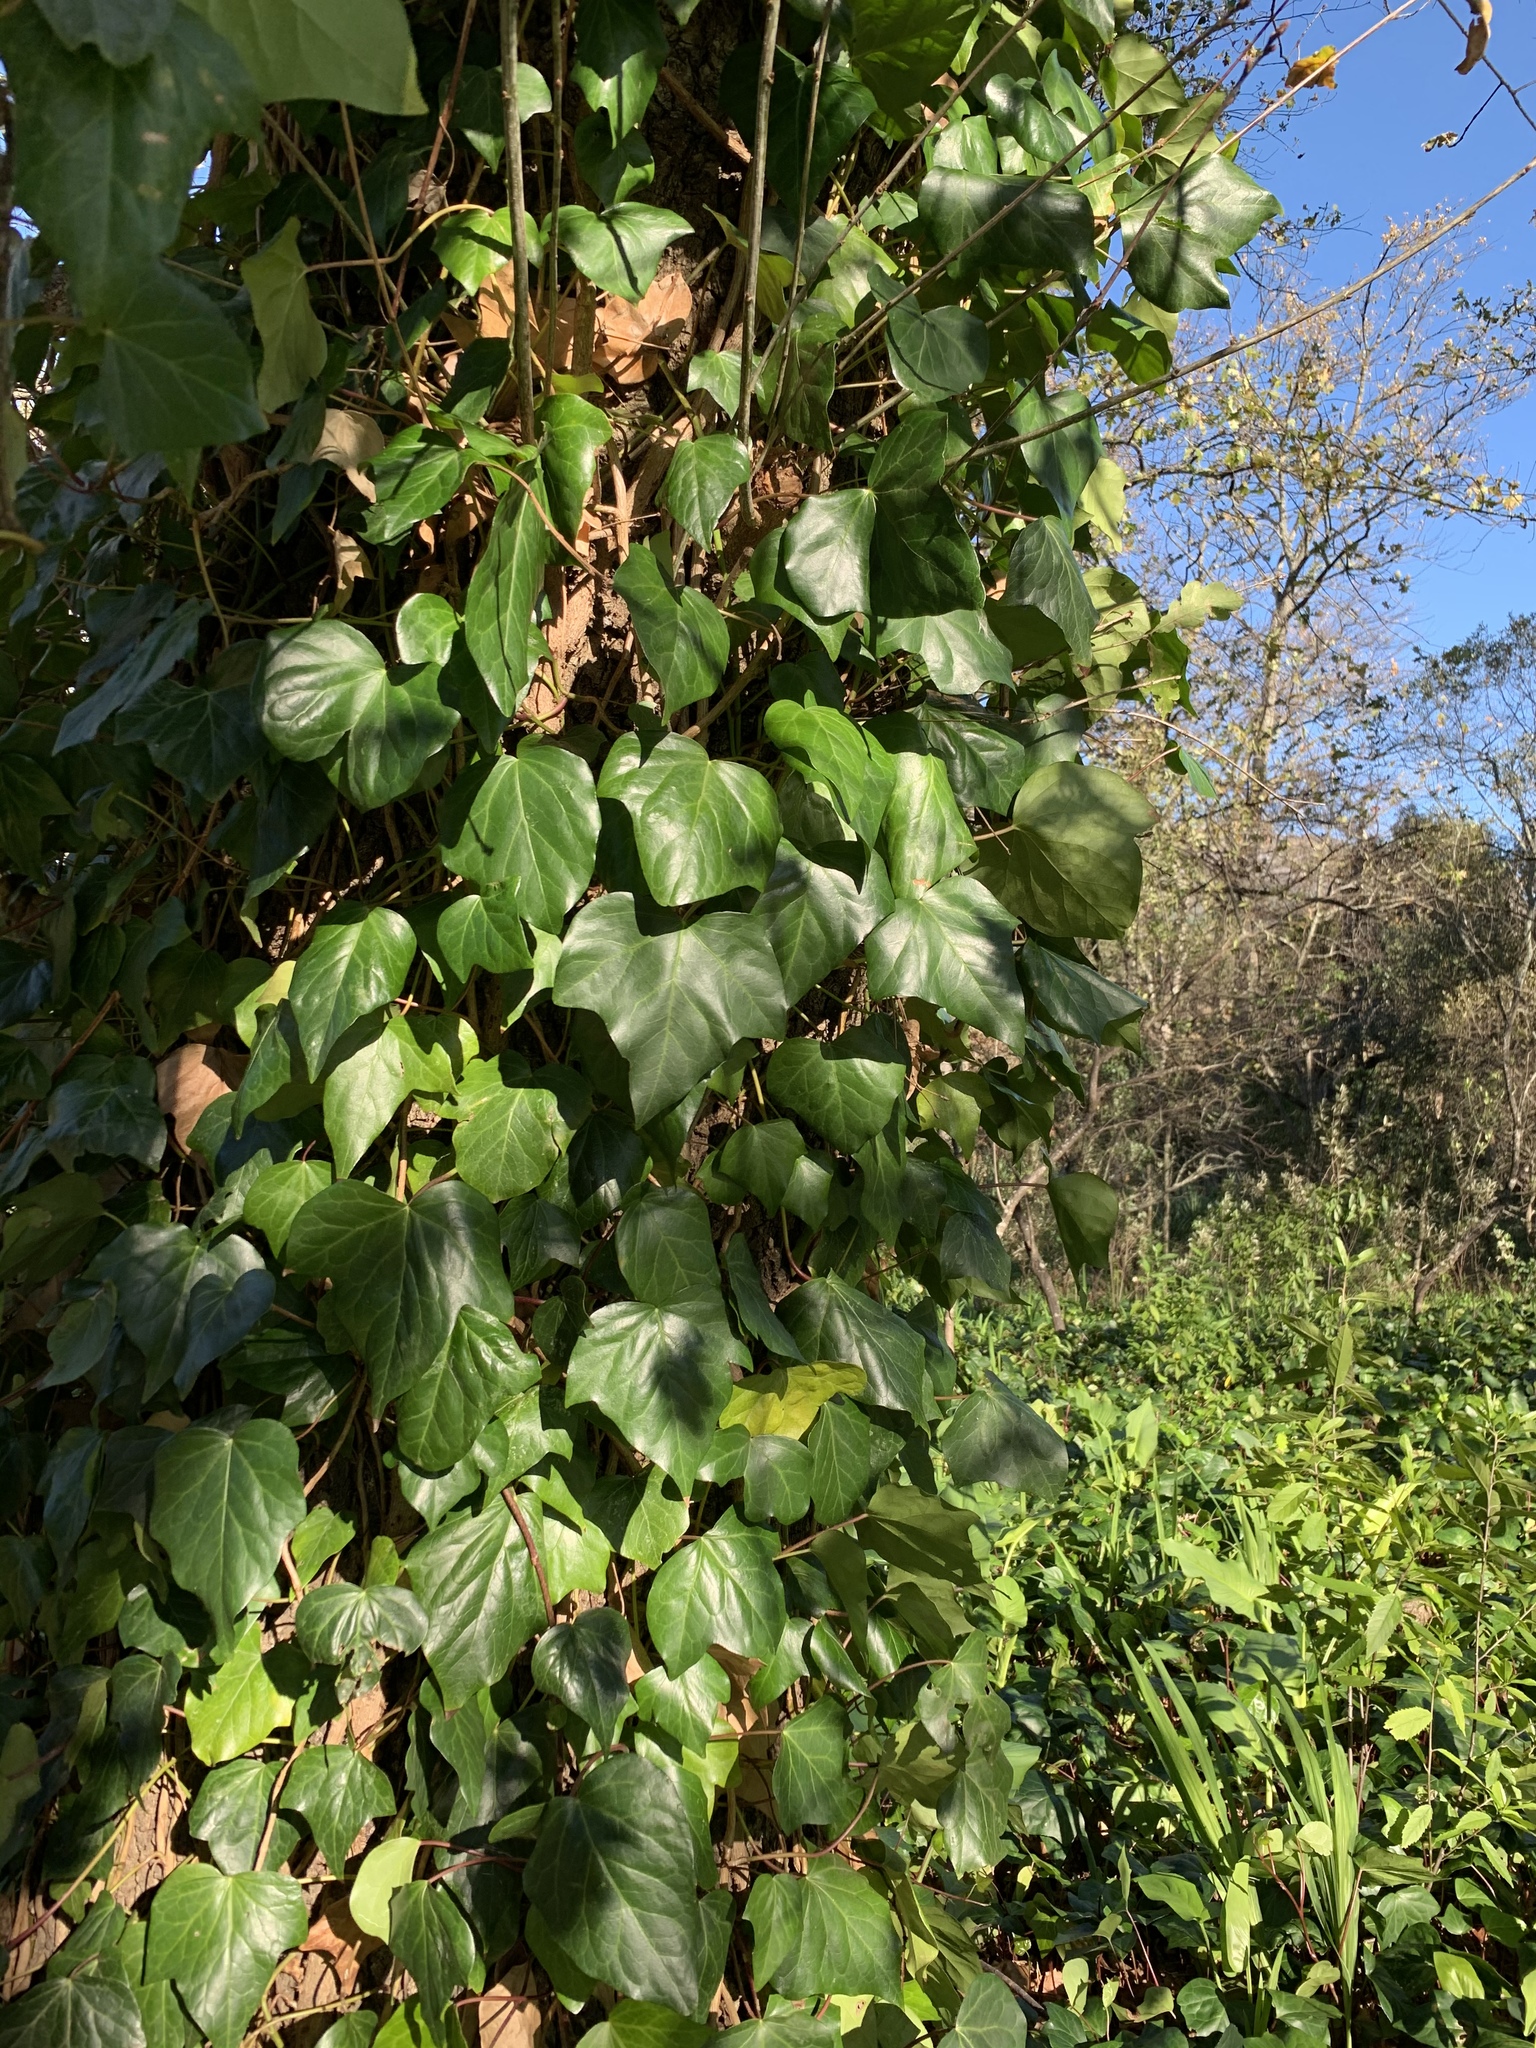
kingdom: Plantae
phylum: Tracheophyta
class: Magnoliopsida
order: Apiales
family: Araliaceae
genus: Hedera
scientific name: Hedera canariensis
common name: Madeira ivy
